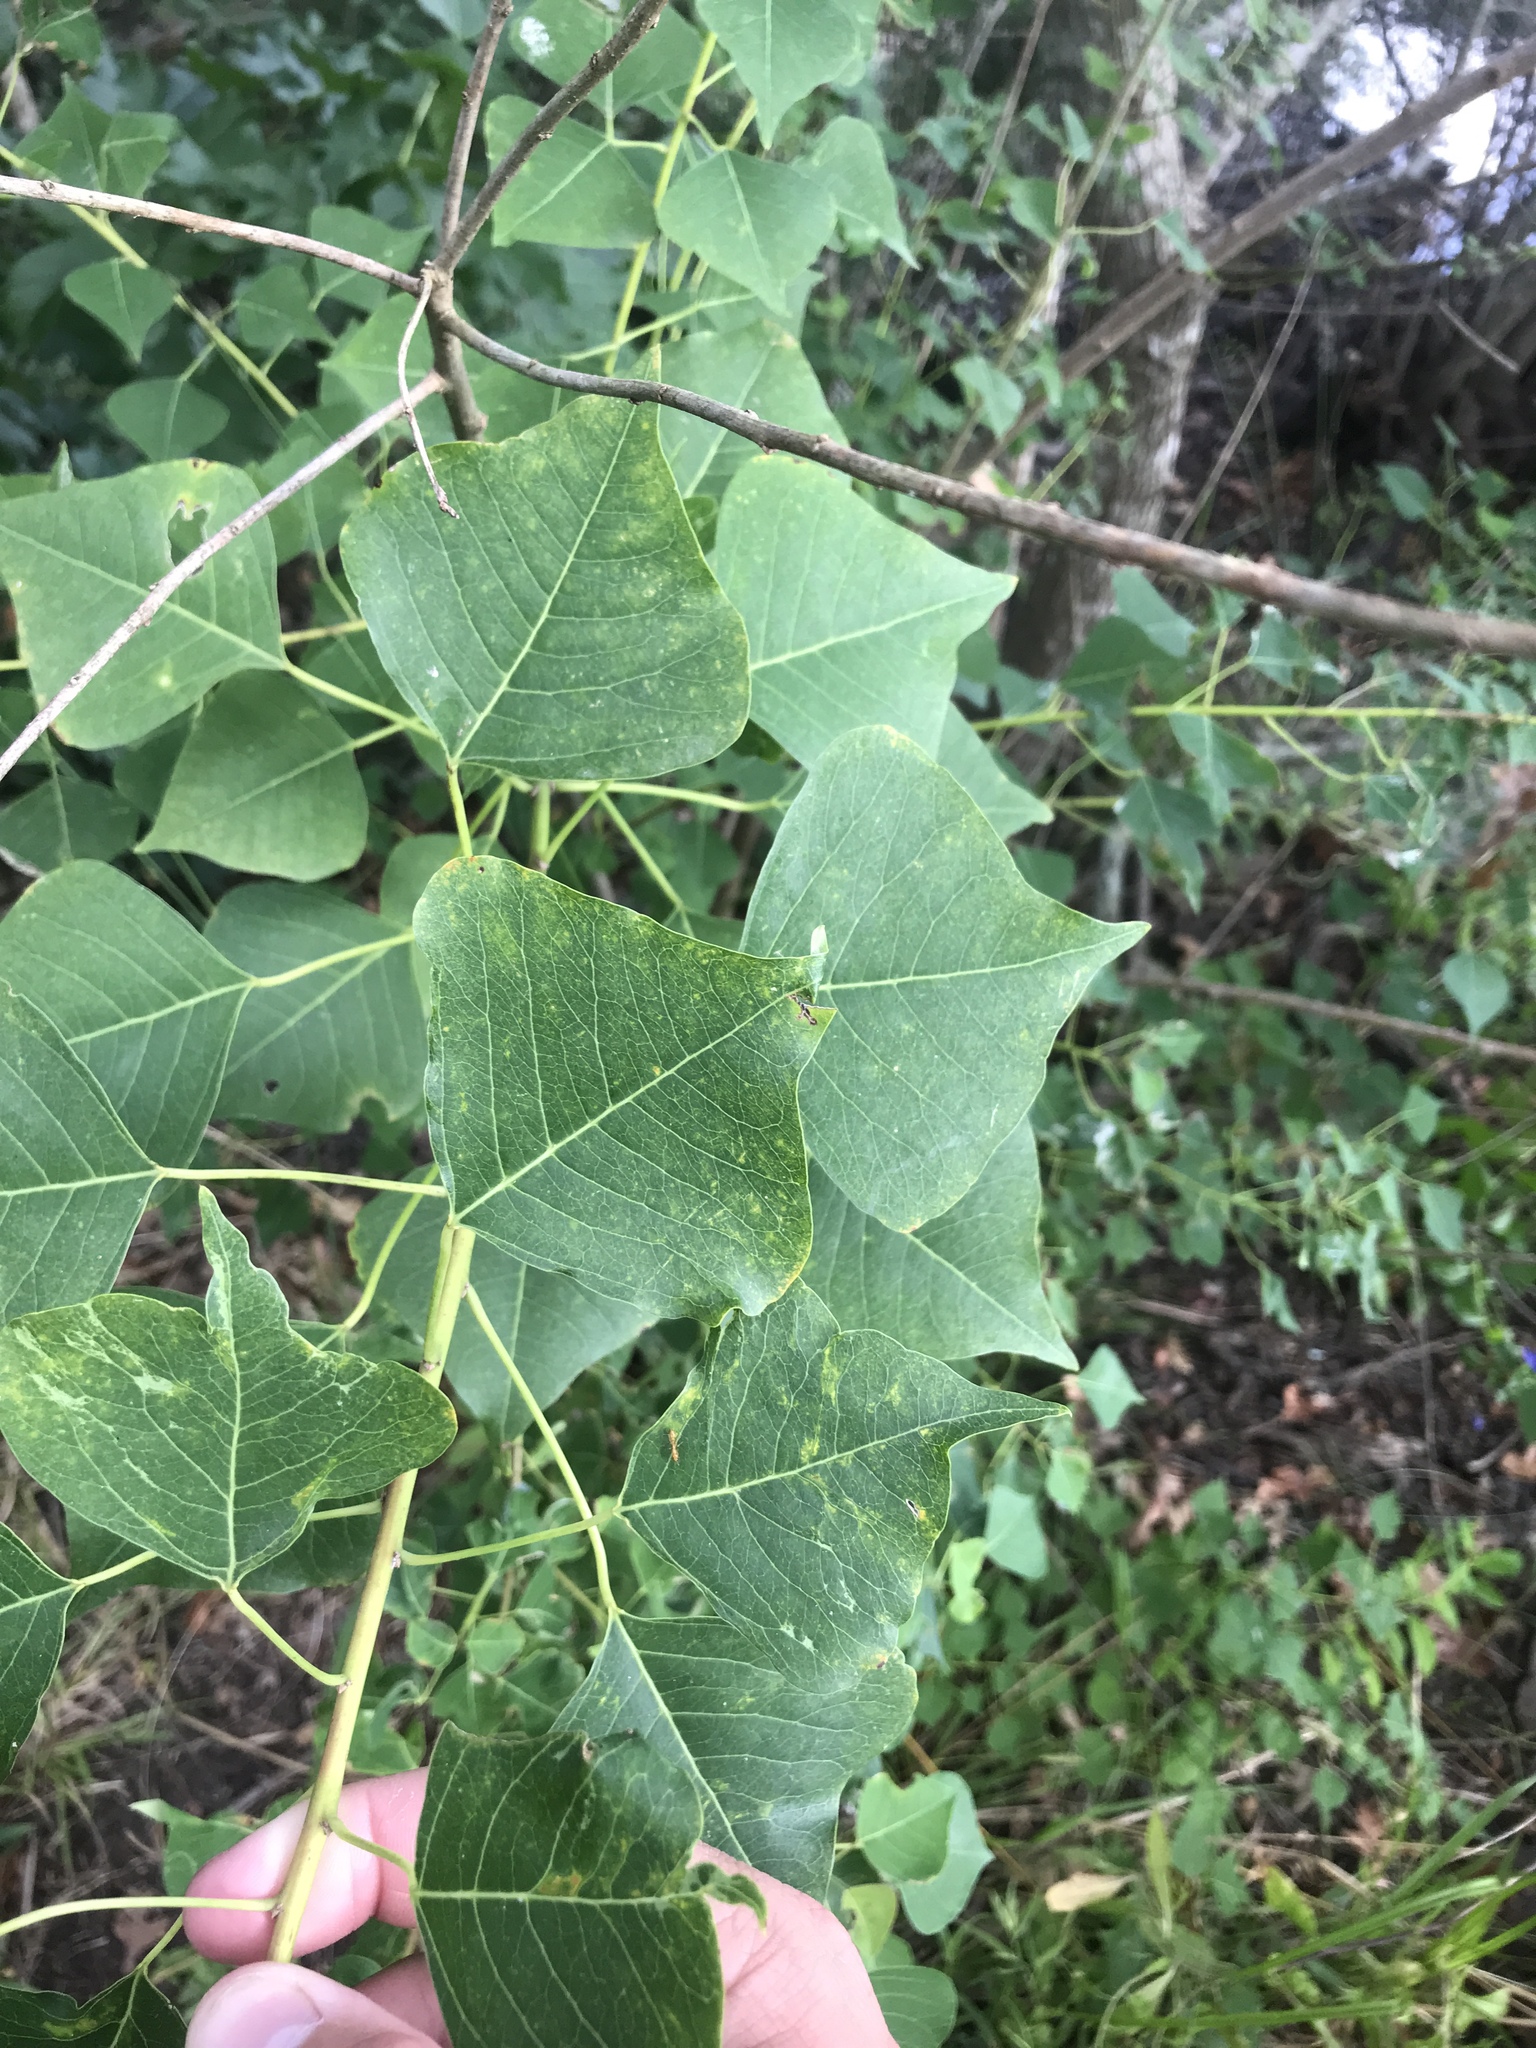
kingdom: Plantae
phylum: Tracheophyta
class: Magnoliopsida
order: Malpighiales
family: Euphorbiaceae
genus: Triadica
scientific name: Triadica sebifera
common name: Chinese tallow
